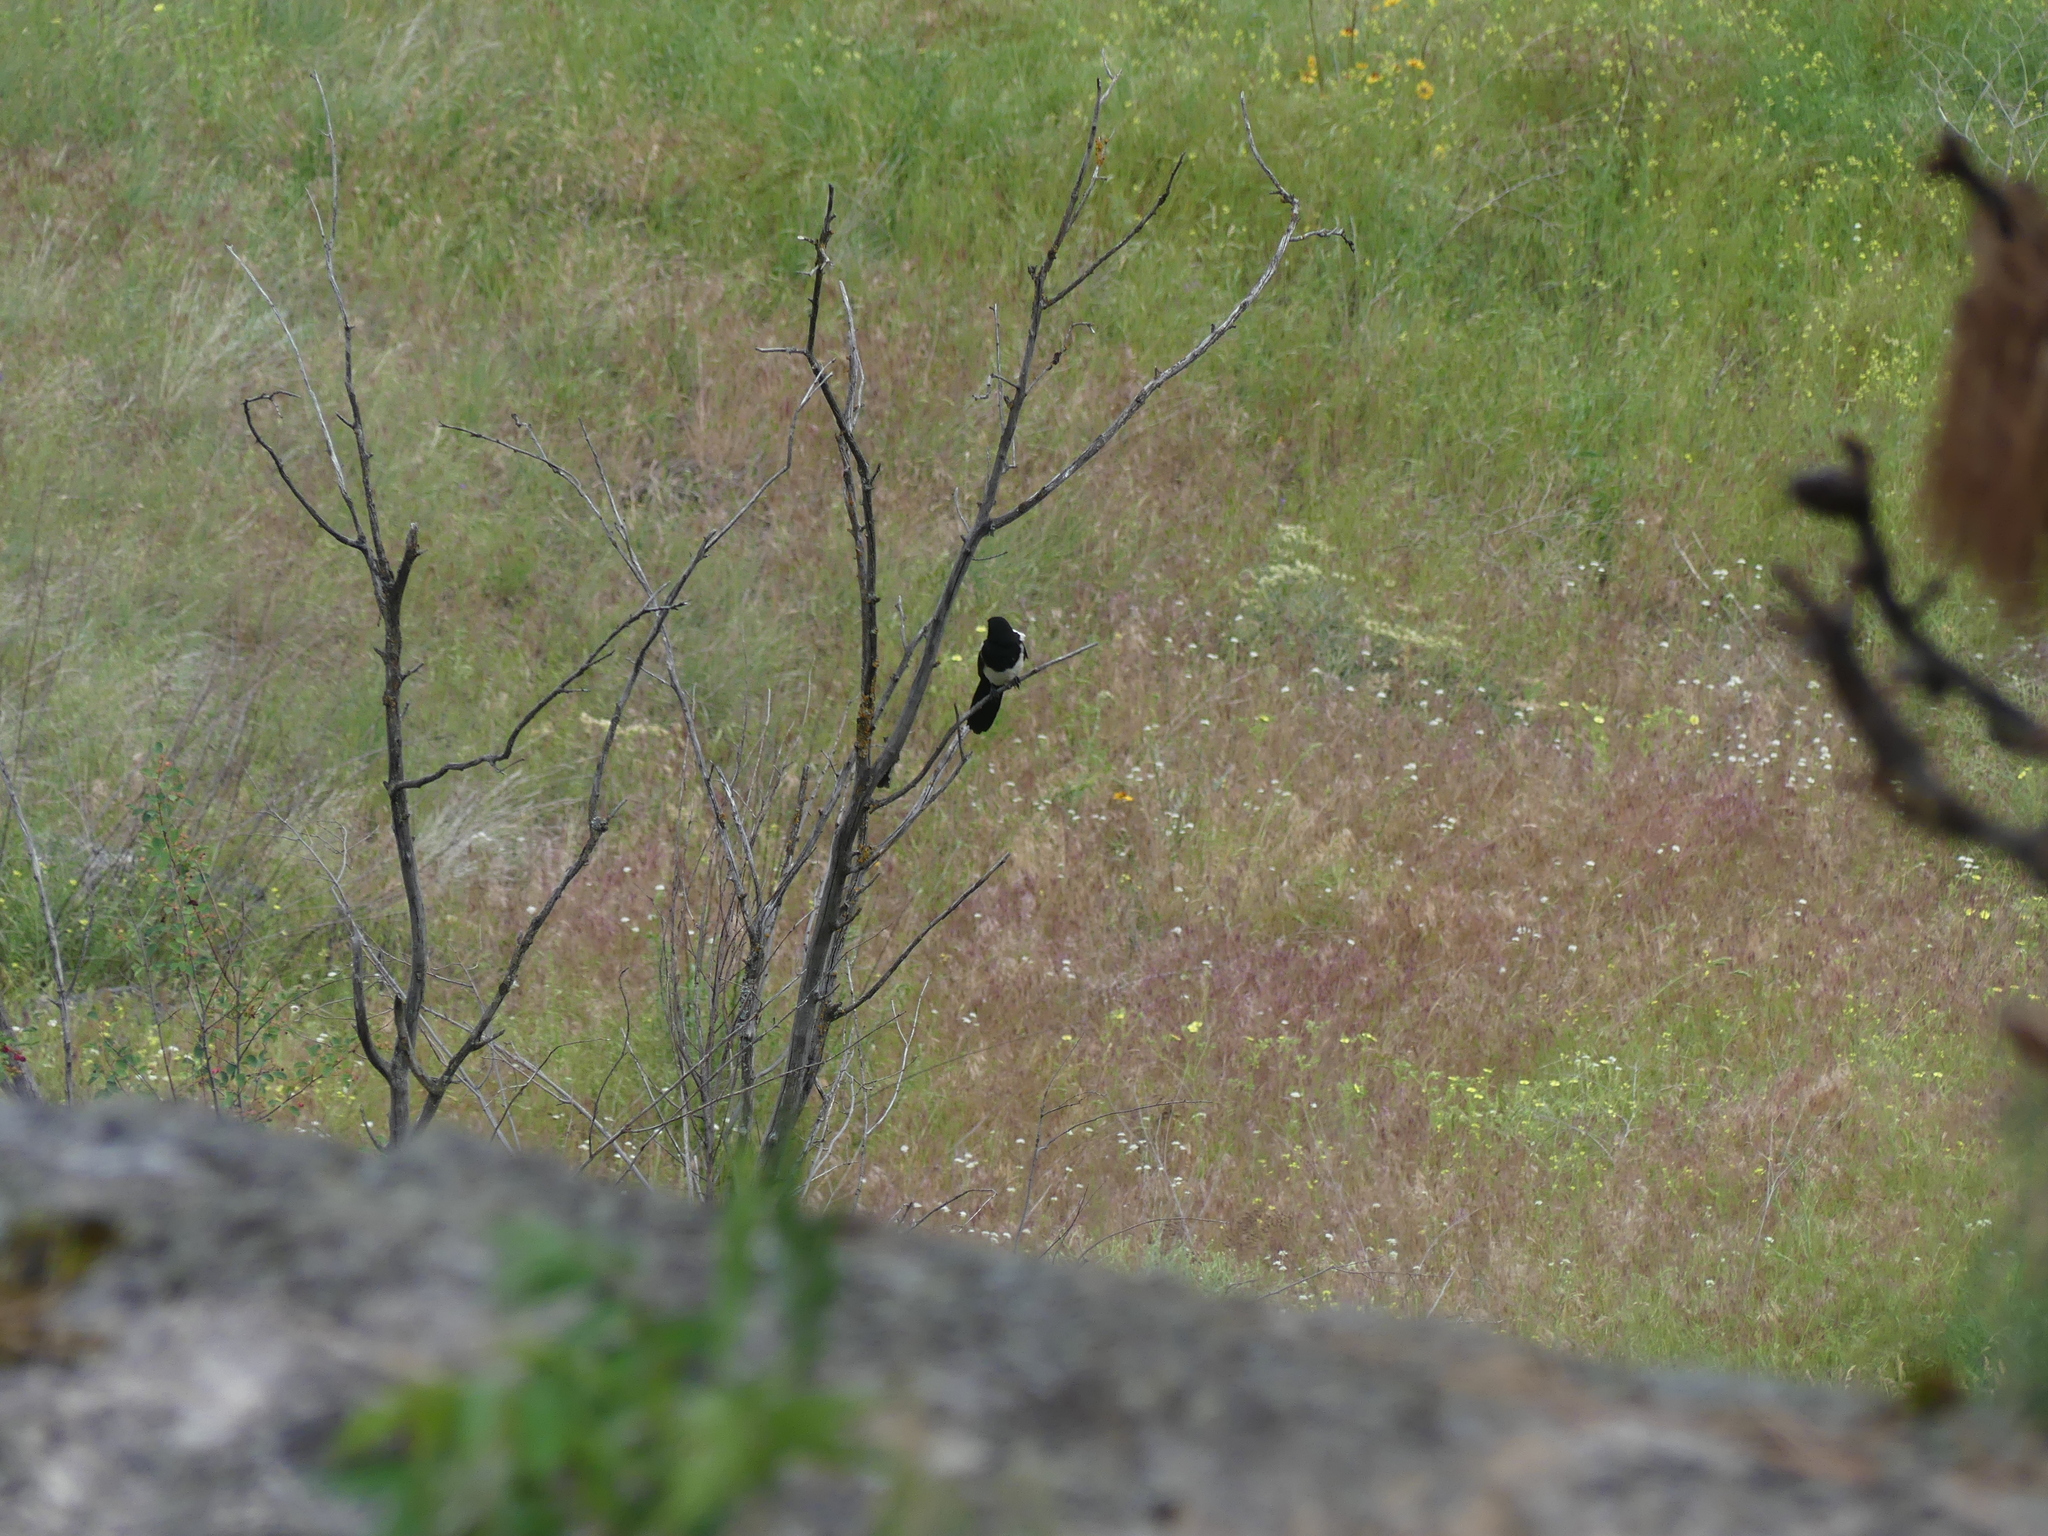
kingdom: Animalia
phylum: Chordata
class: Aves
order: Passeriformes
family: Corvidae
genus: Pica
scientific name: Pica hudsonia
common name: Black-billed magpie
